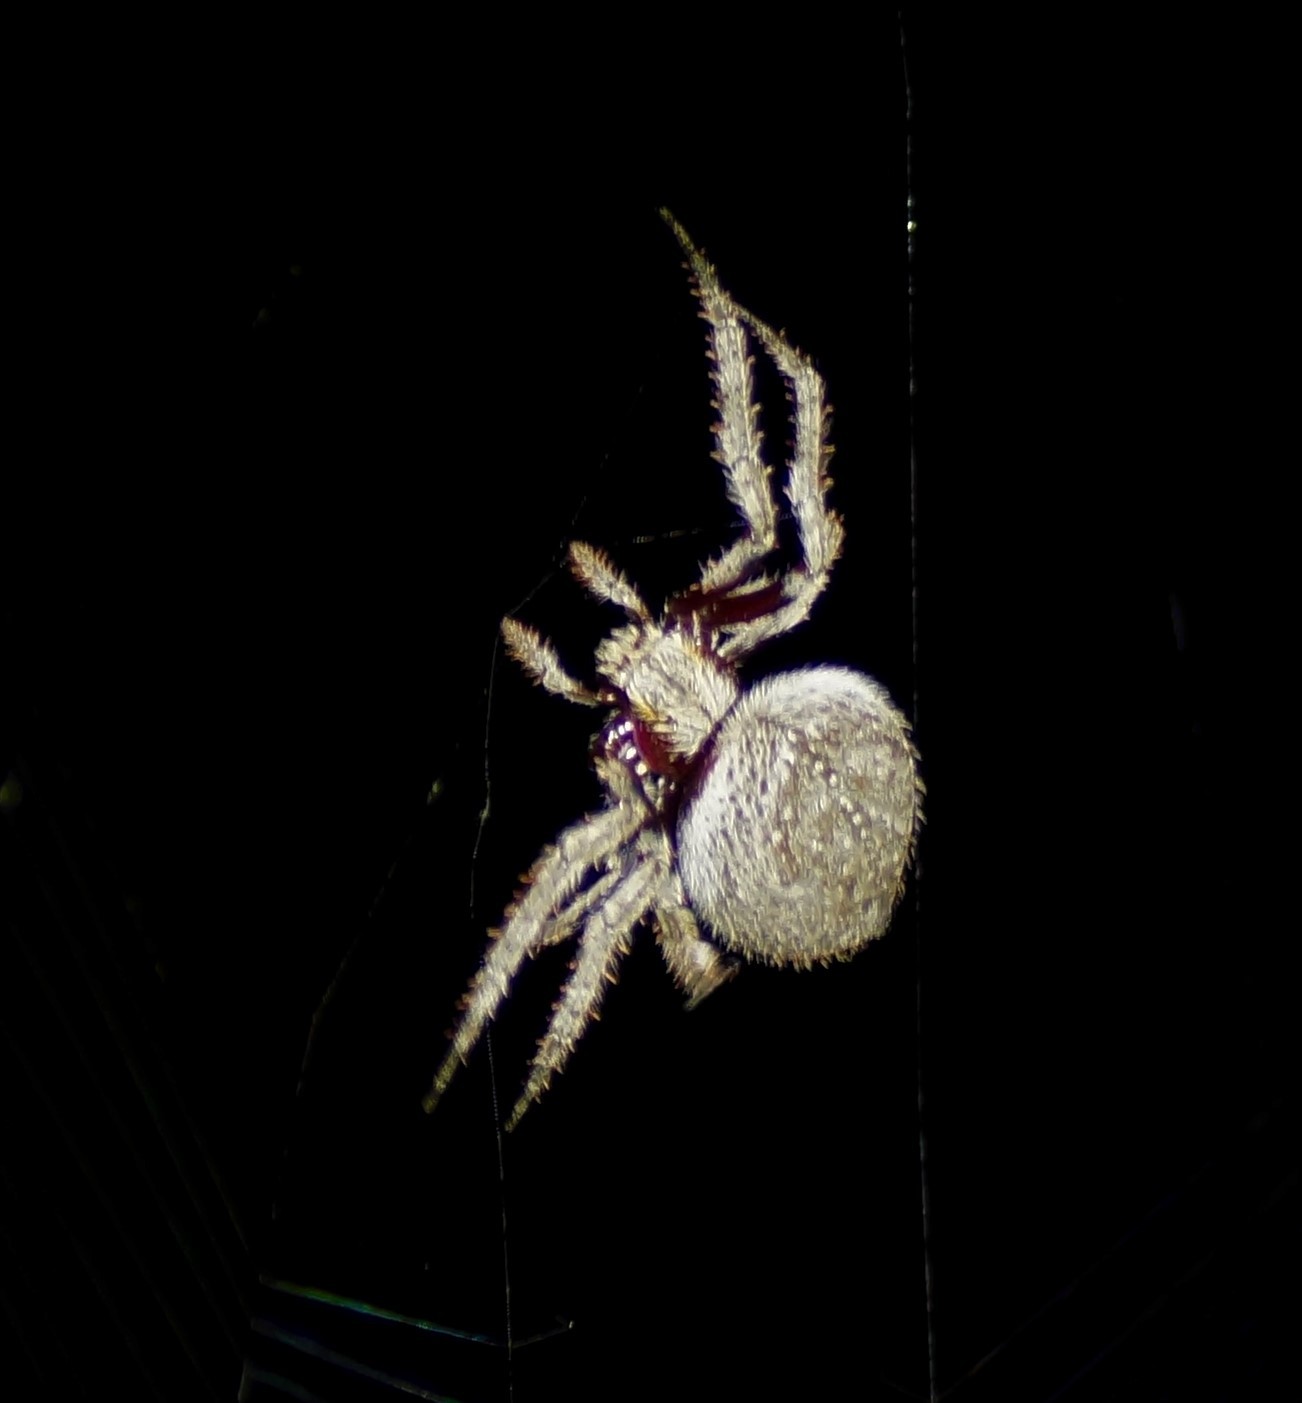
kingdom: Animalia
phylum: Arthropoda
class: Arachnida
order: Araneae
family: Araneidae
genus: Hortophora
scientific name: Hortophora biapicata
